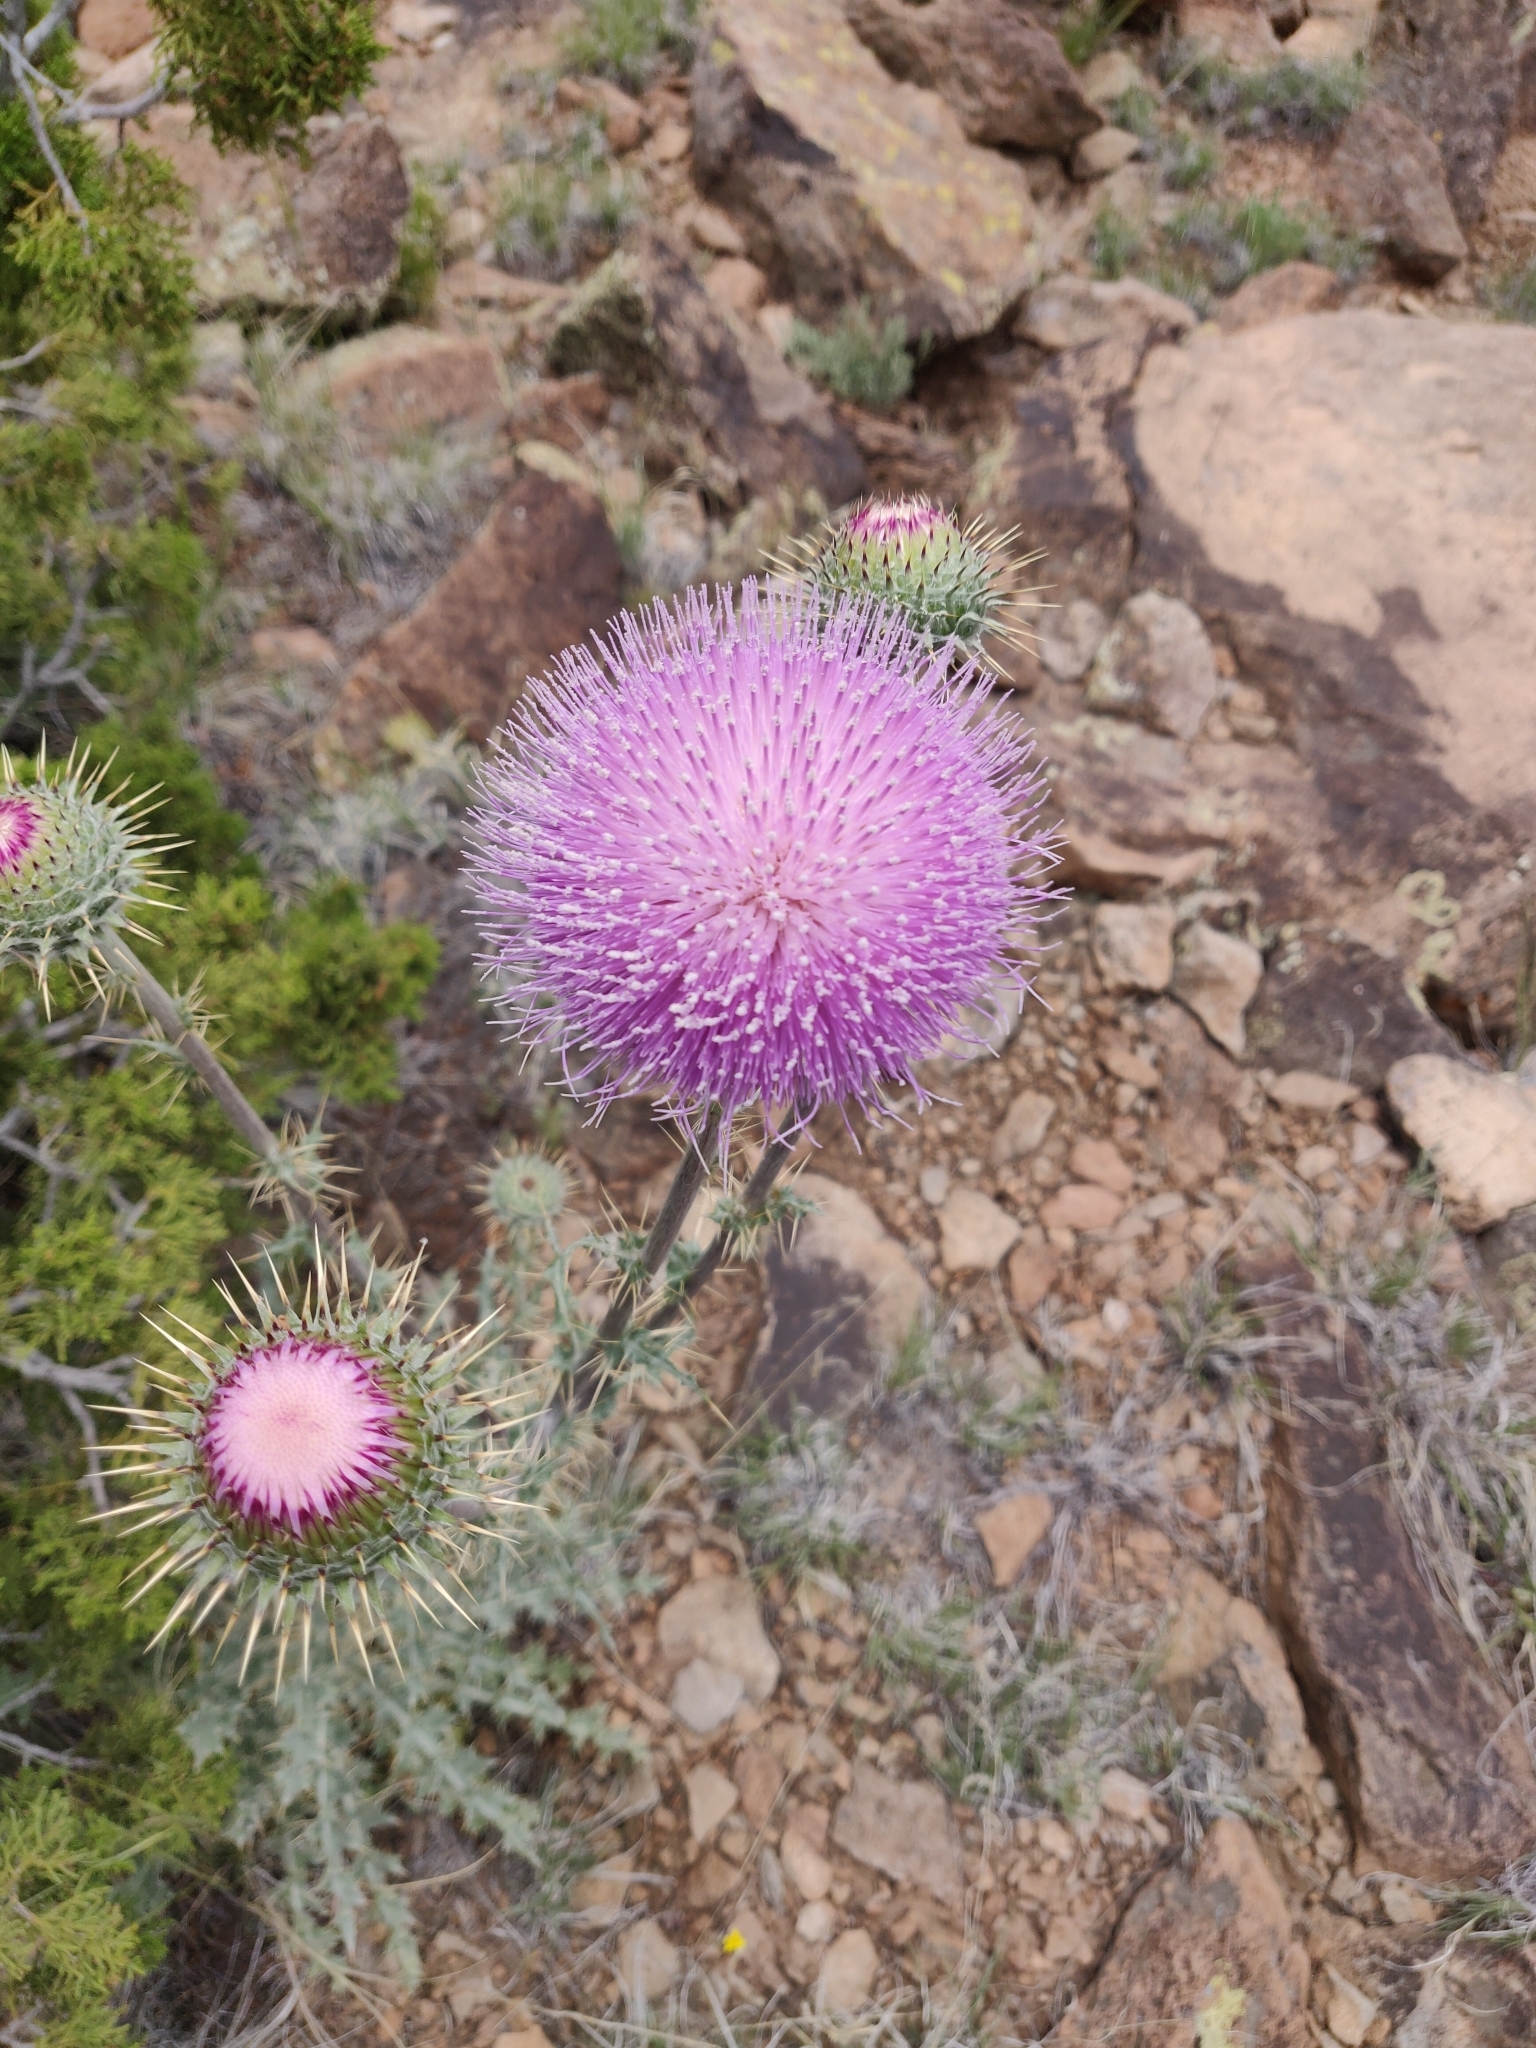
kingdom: Plantae
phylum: Tracheophyta
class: Magnoliopsida
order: Asterales
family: Asteraceae
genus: Cirsium
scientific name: Cirsium neomexicanum
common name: New mexico thistle
